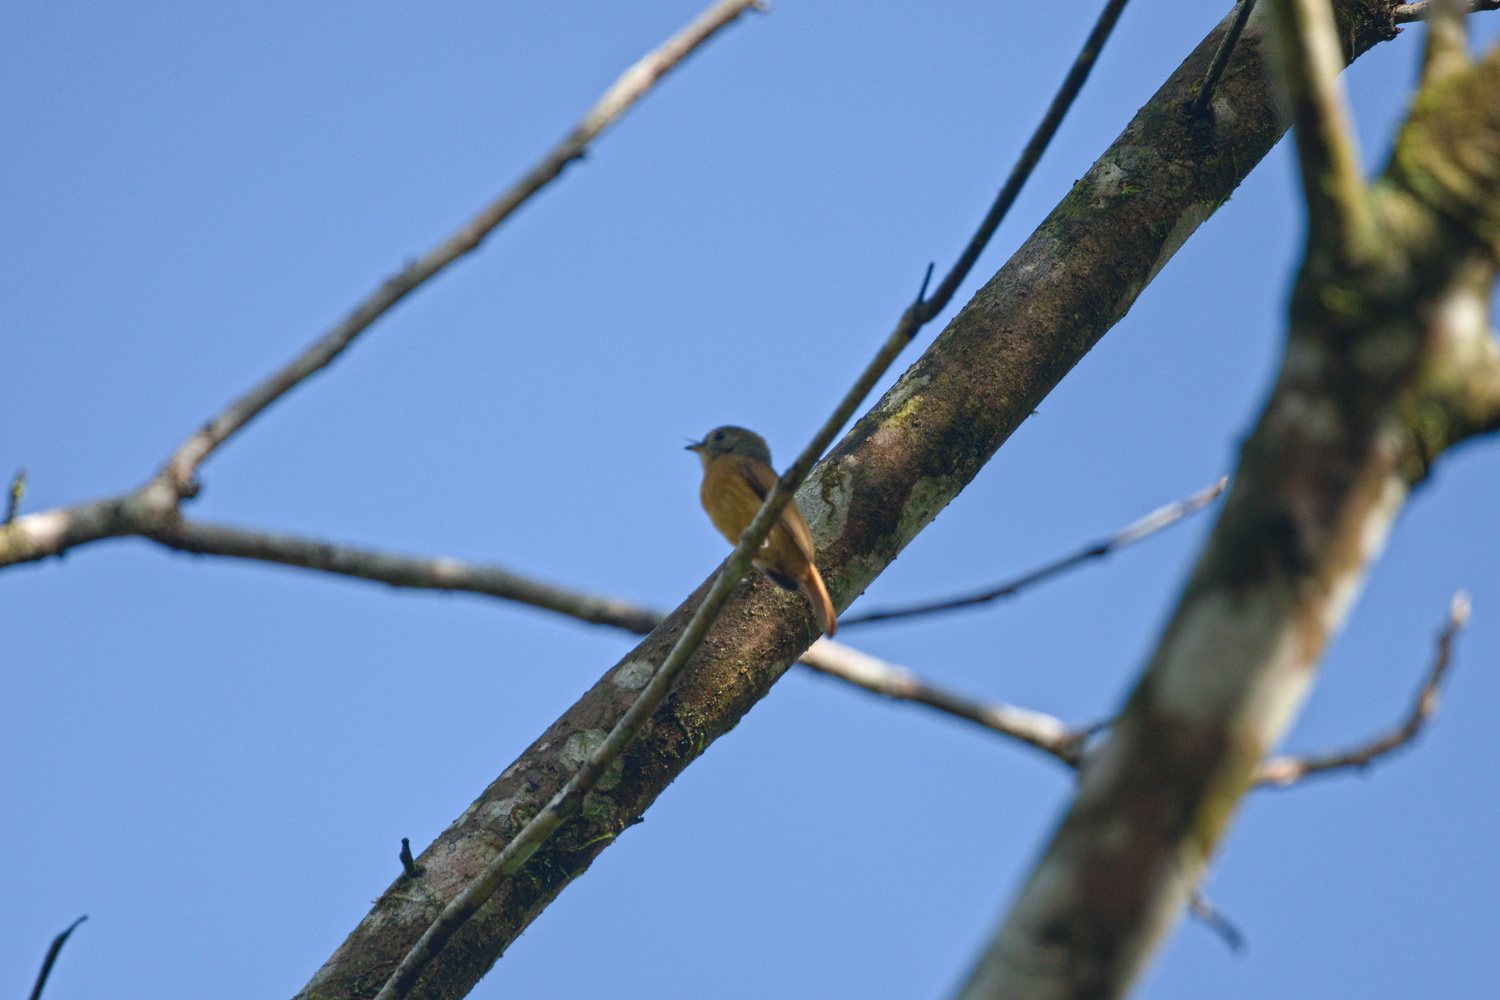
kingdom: Animalia
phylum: Chordata
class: Aves
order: Passeriformes
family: Tyrannidae
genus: Terenotriccus
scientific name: Terenotriccus erythrurus
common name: Ruddy-tailed flycatcher
